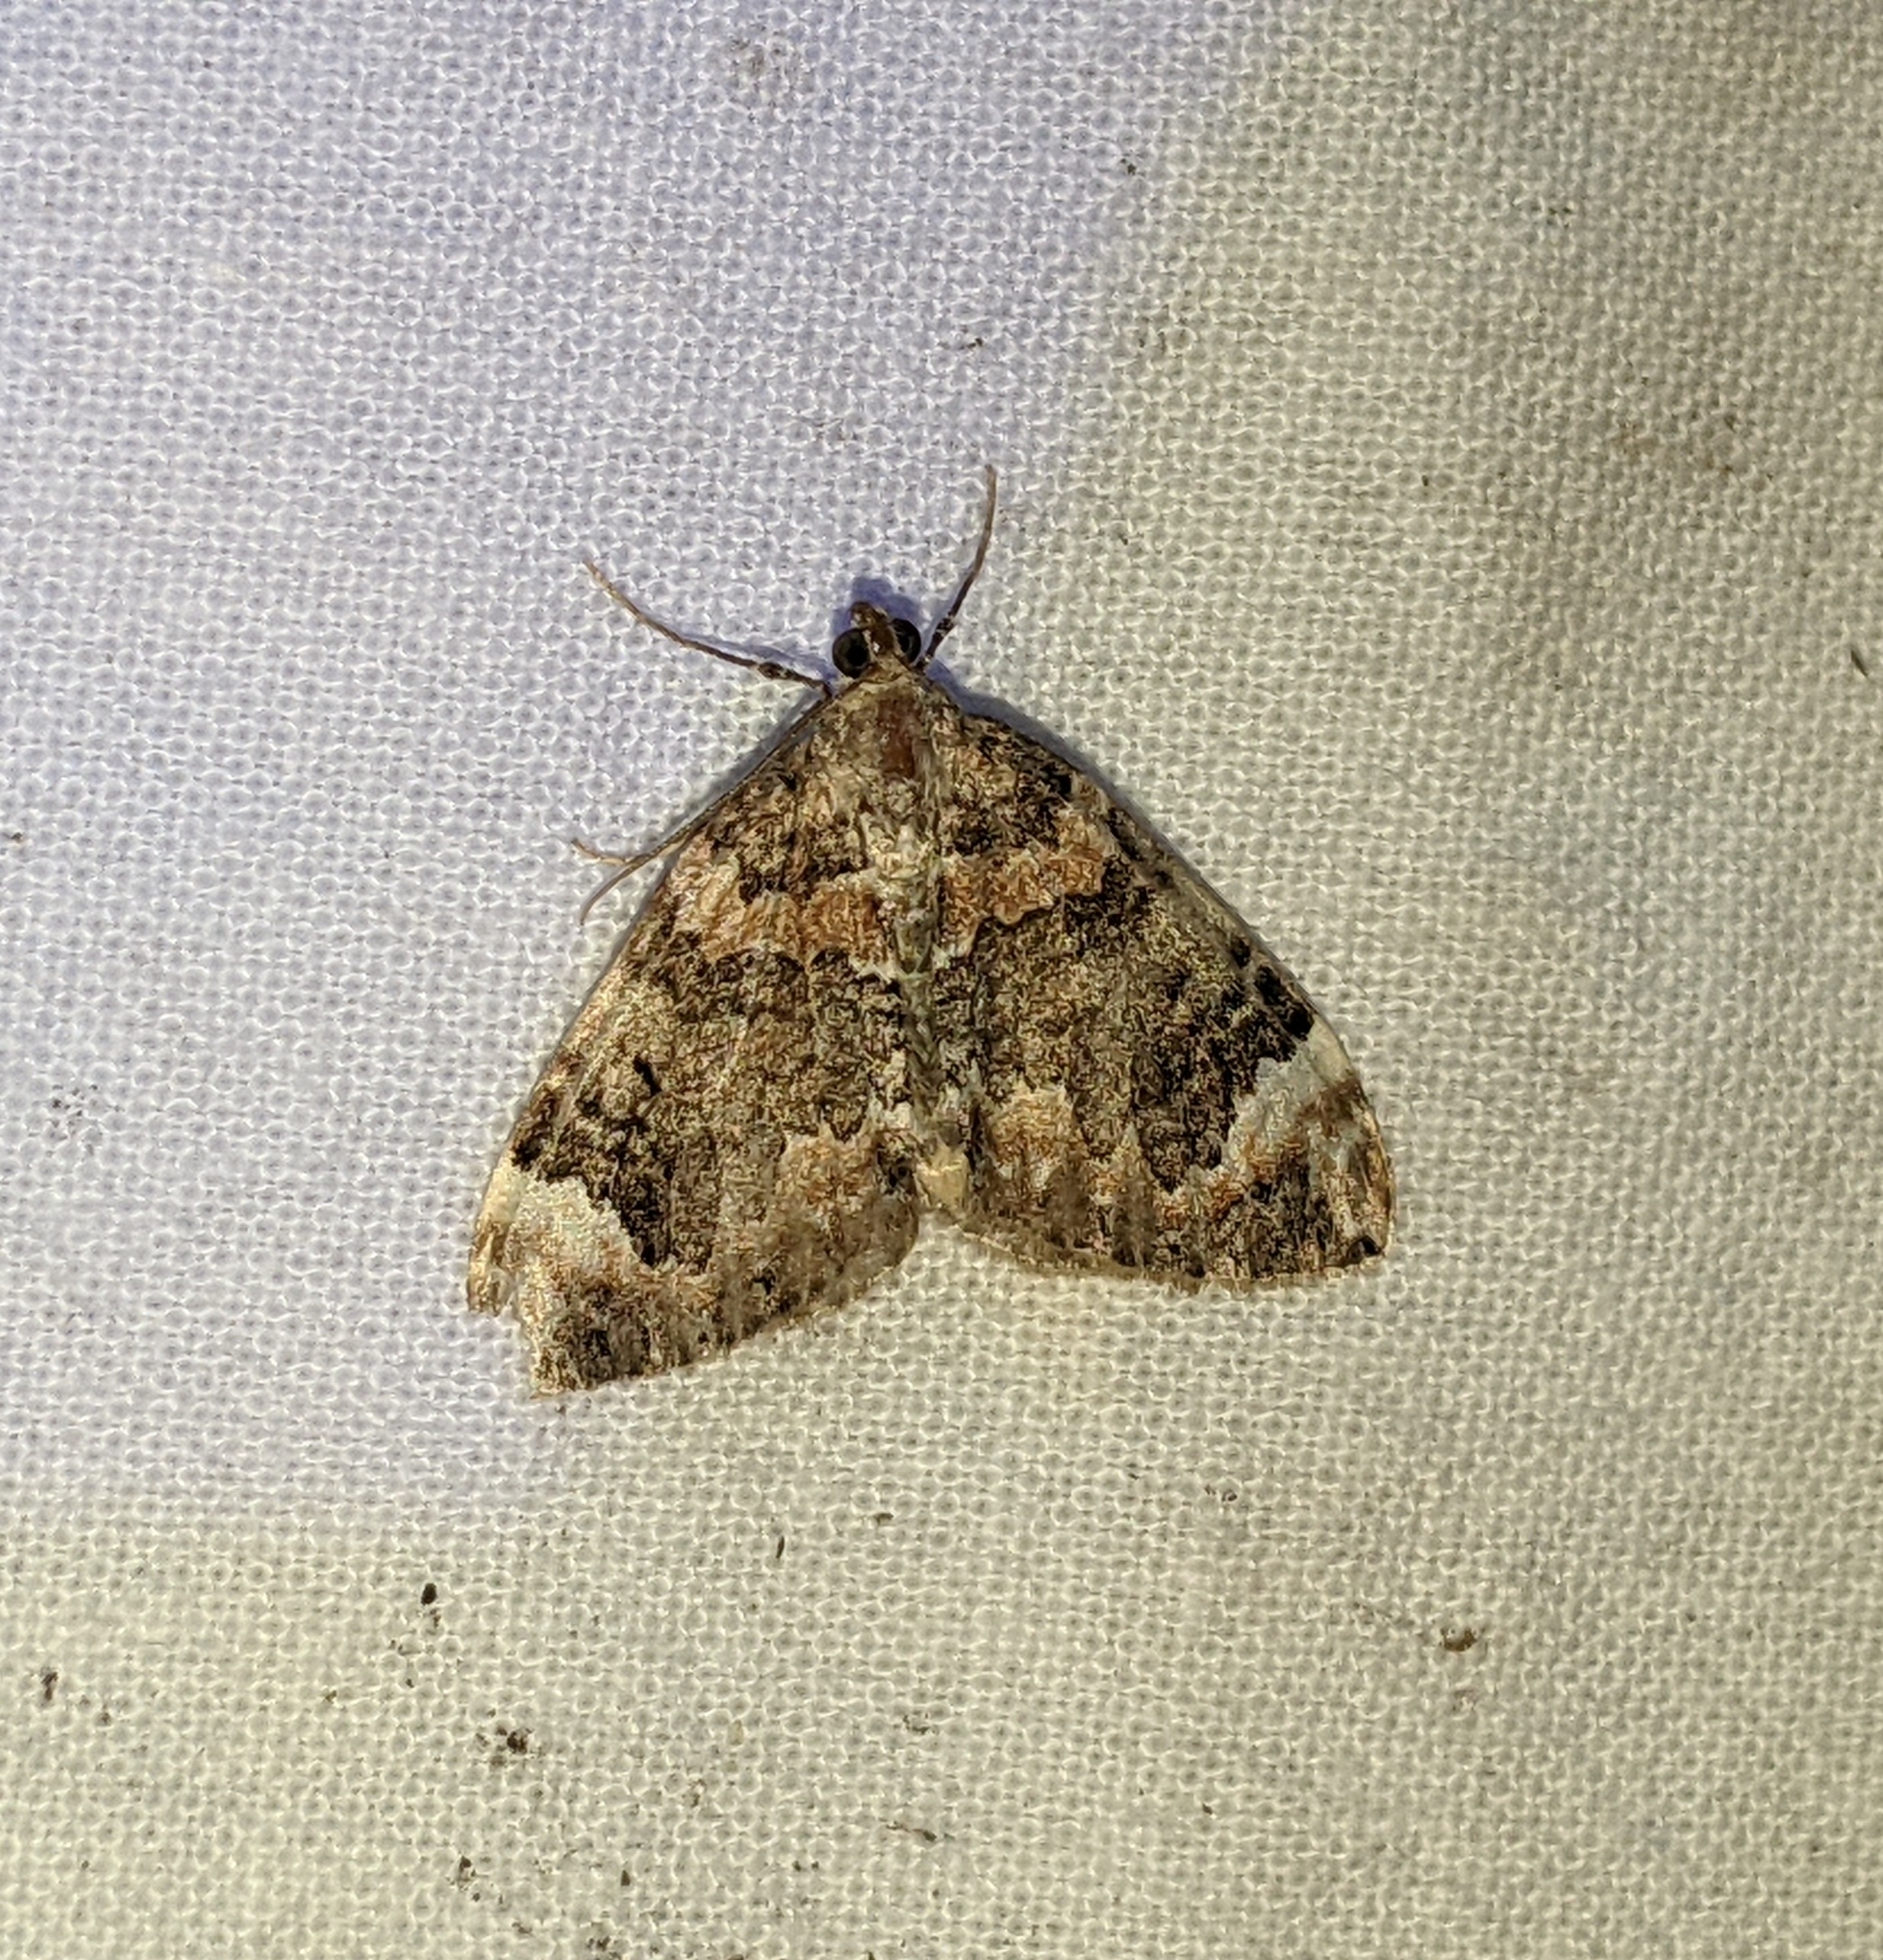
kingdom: Animalia
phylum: Arthropoda
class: Insecta
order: Lepidoptera
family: Geometridae
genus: Dysstroma
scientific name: Dysstroma citrata
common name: Dark marbled carpet
